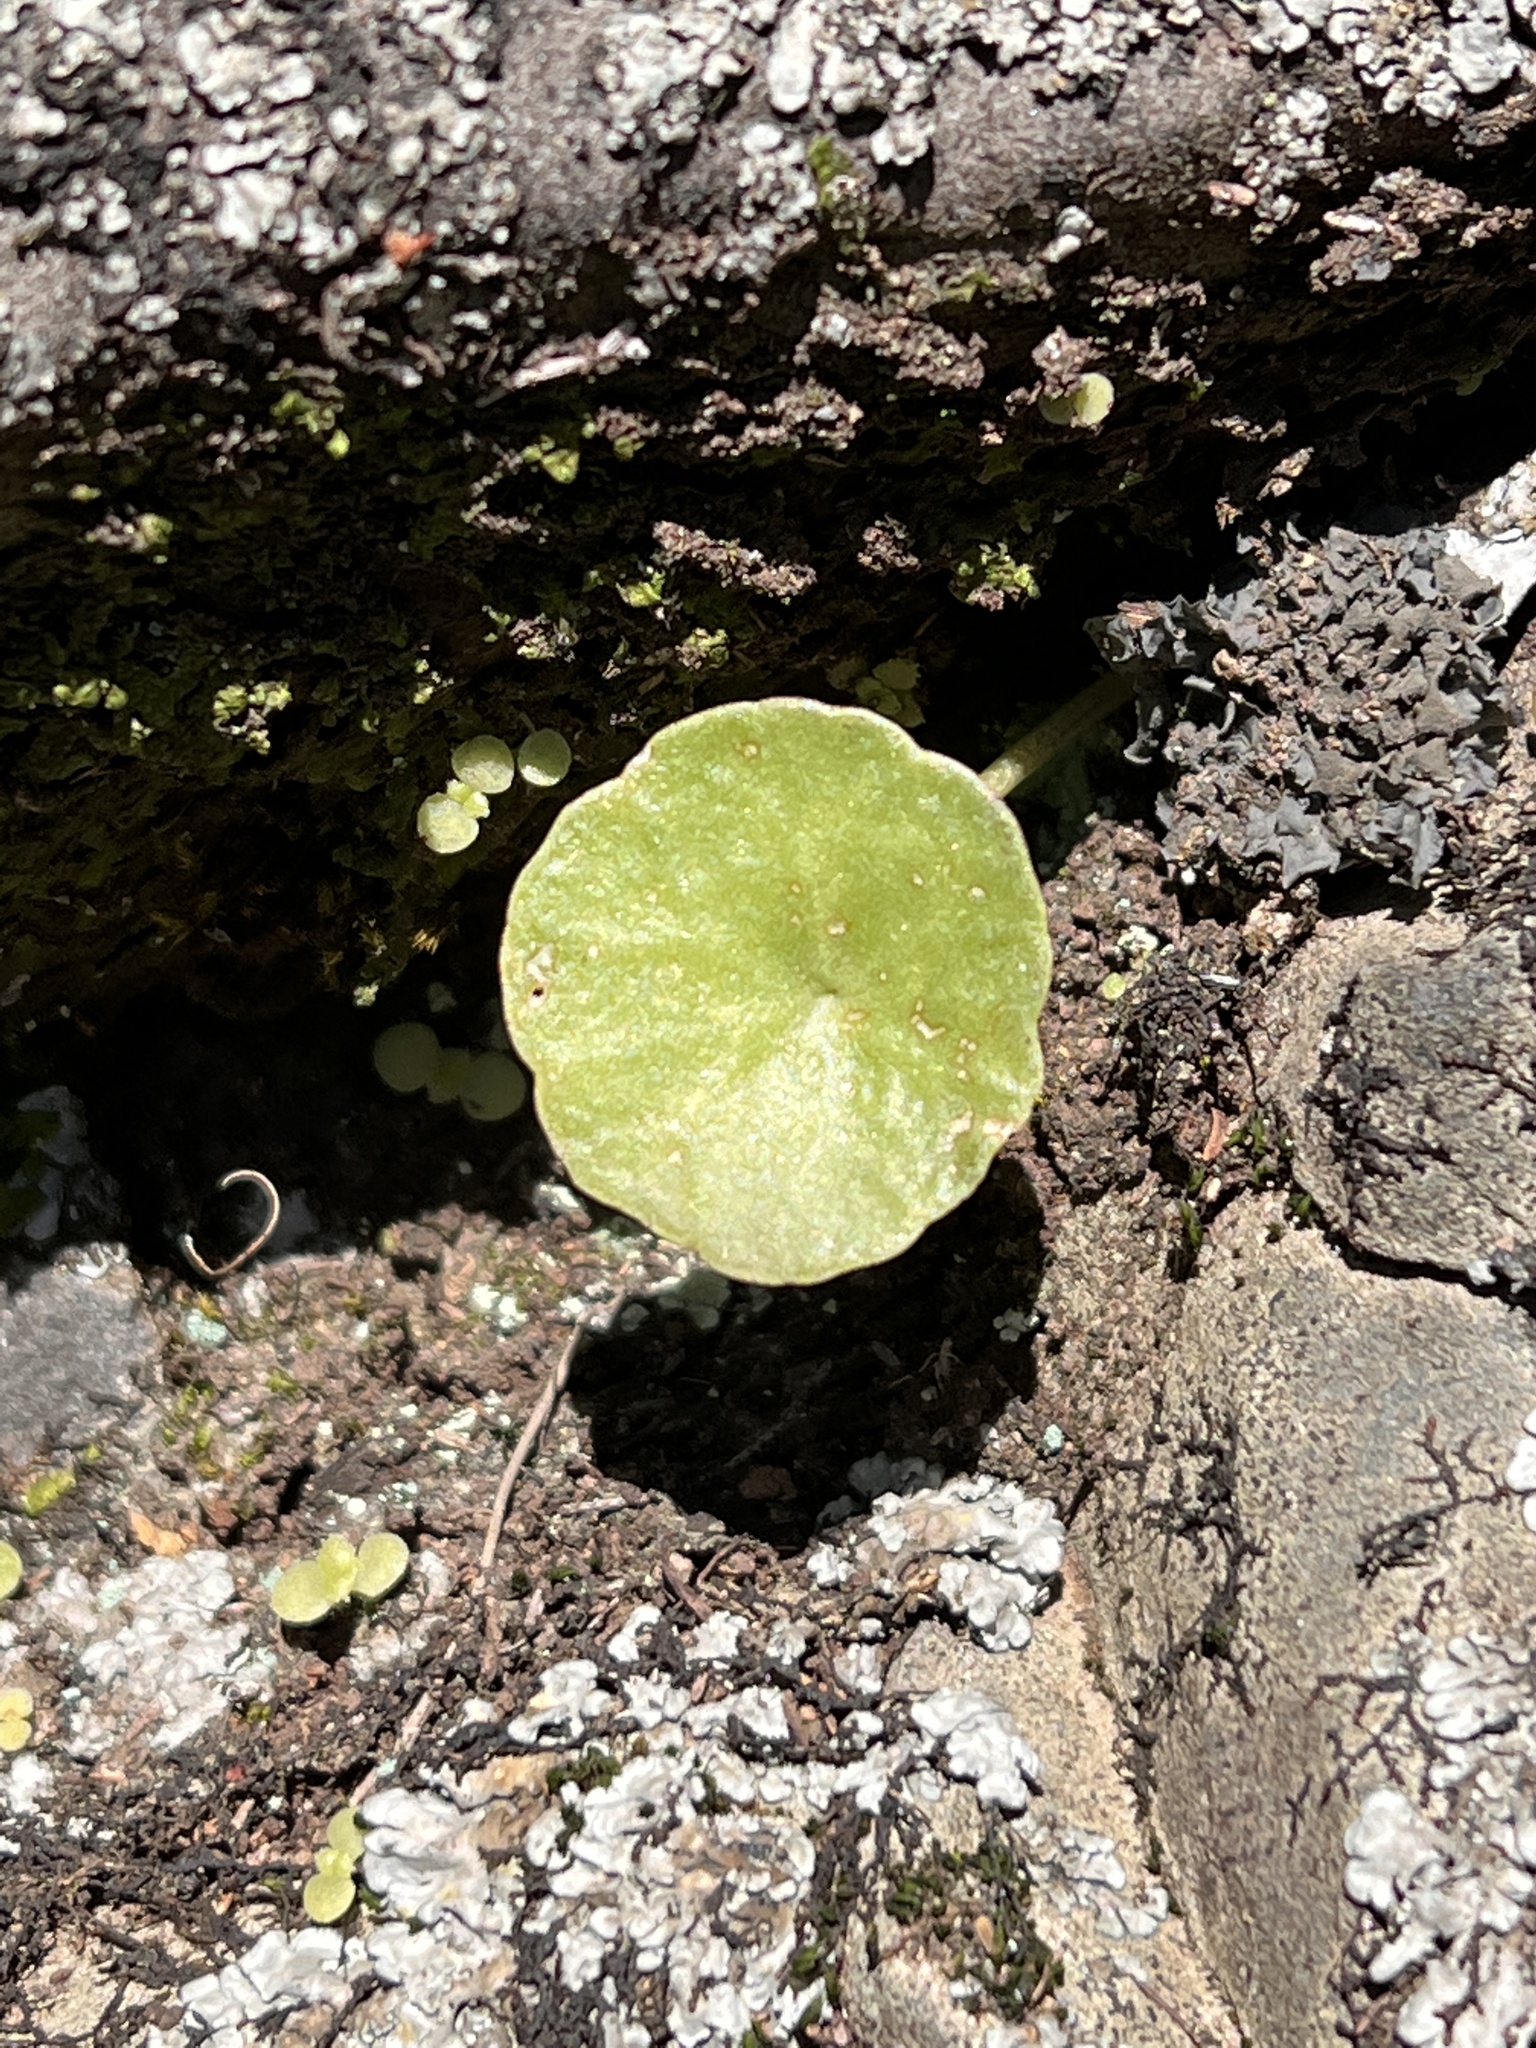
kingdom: Plantae
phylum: Tracheophyta
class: Magnoliopsida
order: Saxifragales
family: Crassulaceae
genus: Umbilicus
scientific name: Umbilicus rupestris
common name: Navelwort
